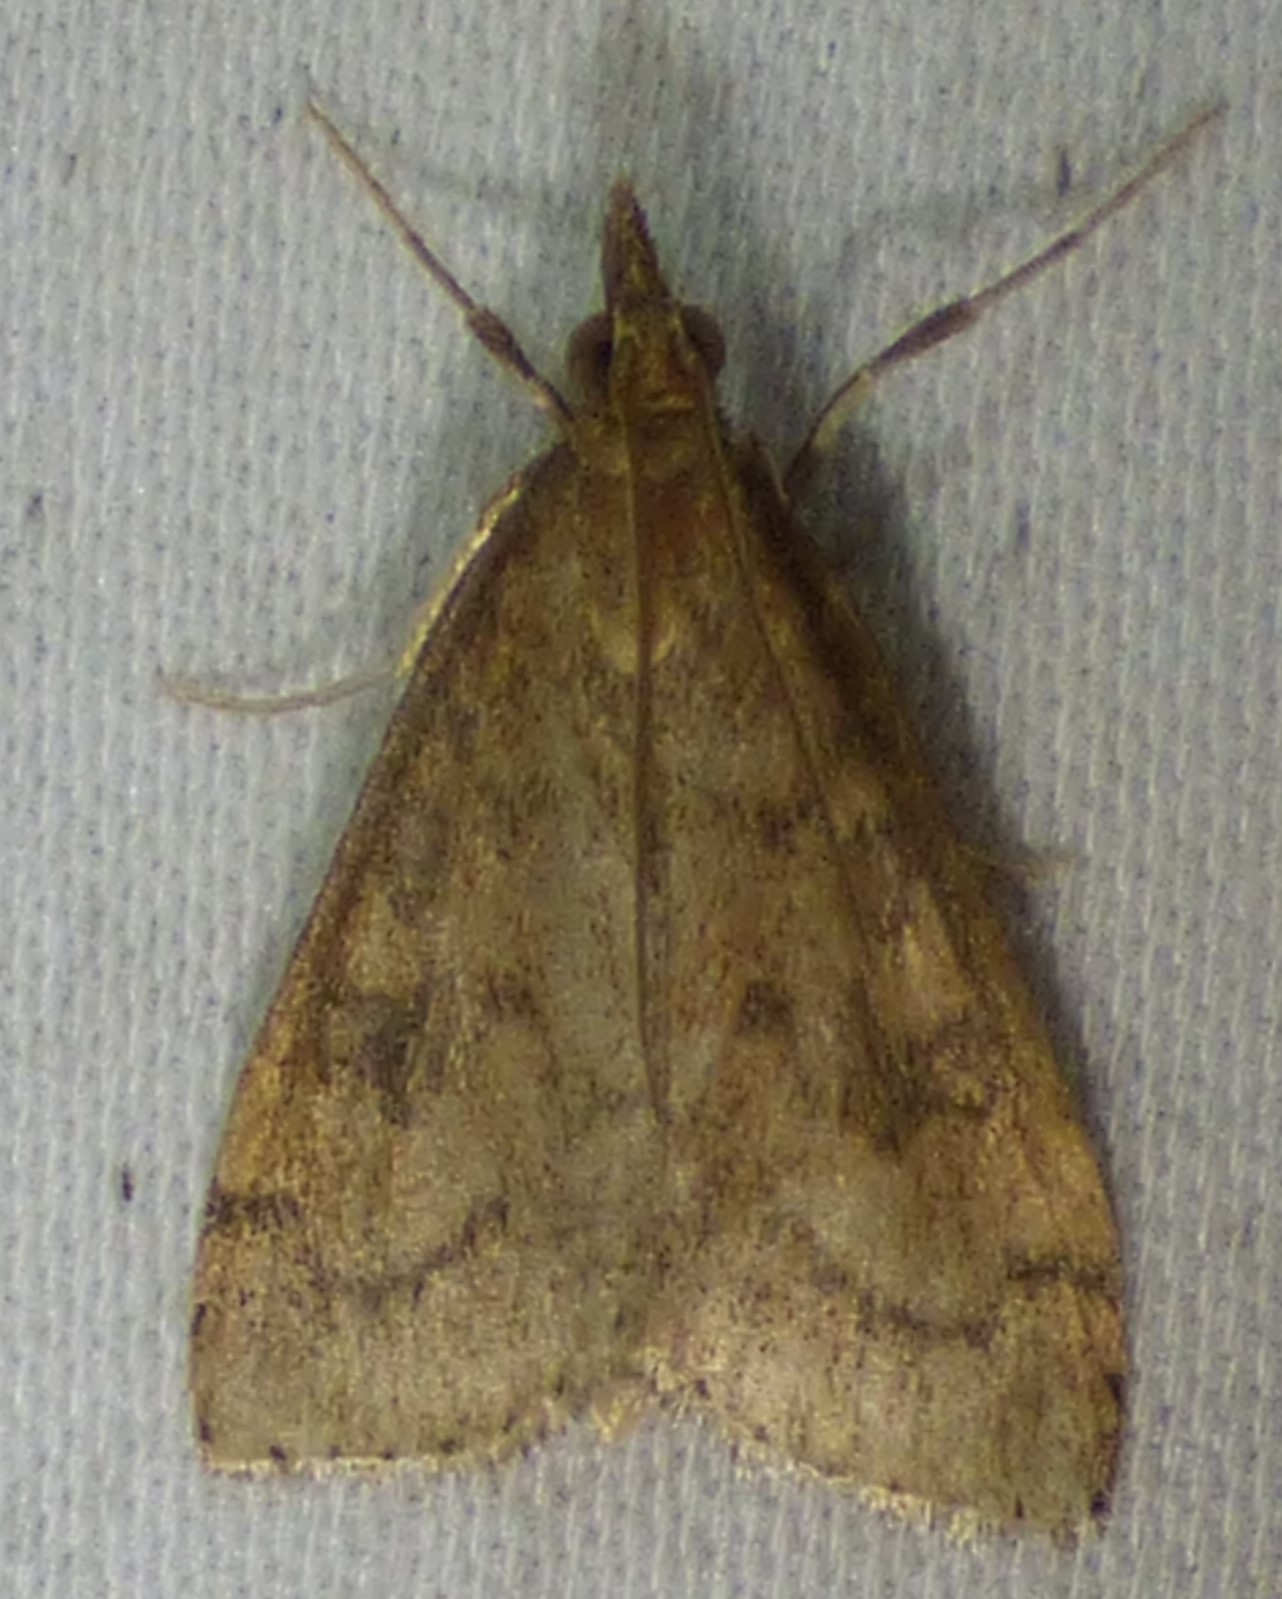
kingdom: Animalia
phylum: Arthropoda
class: Insecta
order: Lepidoptera
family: Crambidae
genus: Udea
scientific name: Udea rubigalis
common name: Celery leaftier moth
